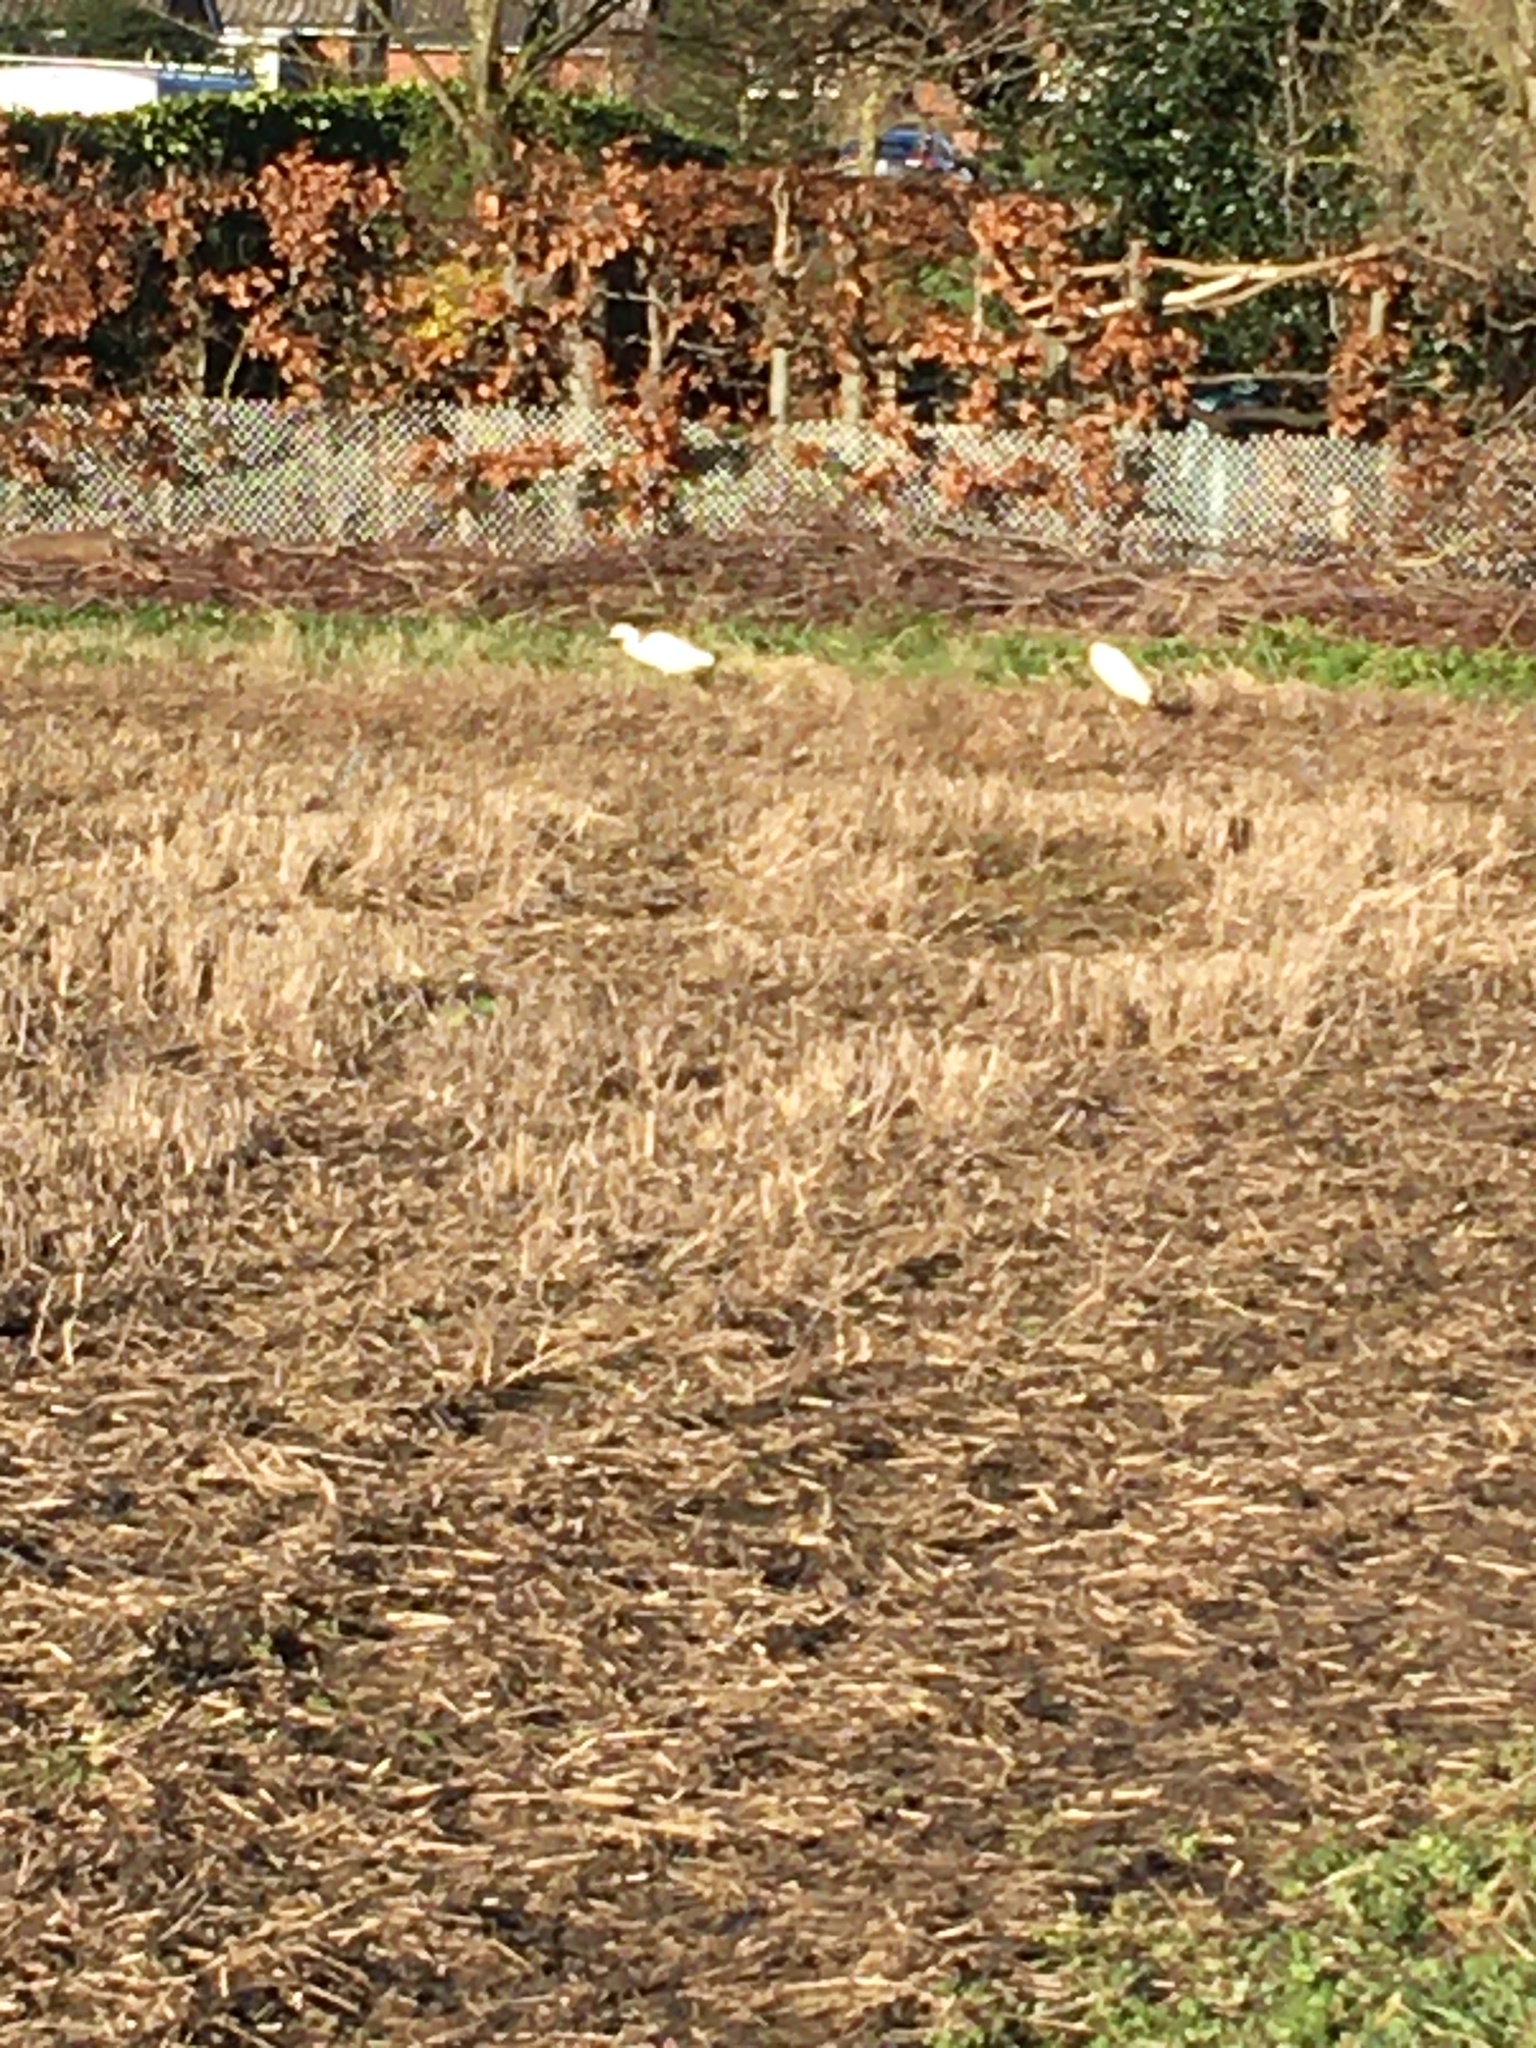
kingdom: Animalia
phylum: Chordata
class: Aves
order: Pelecaniformes
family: Ardeidae
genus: Egretta
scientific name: Egretta garzetta
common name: Little egret
